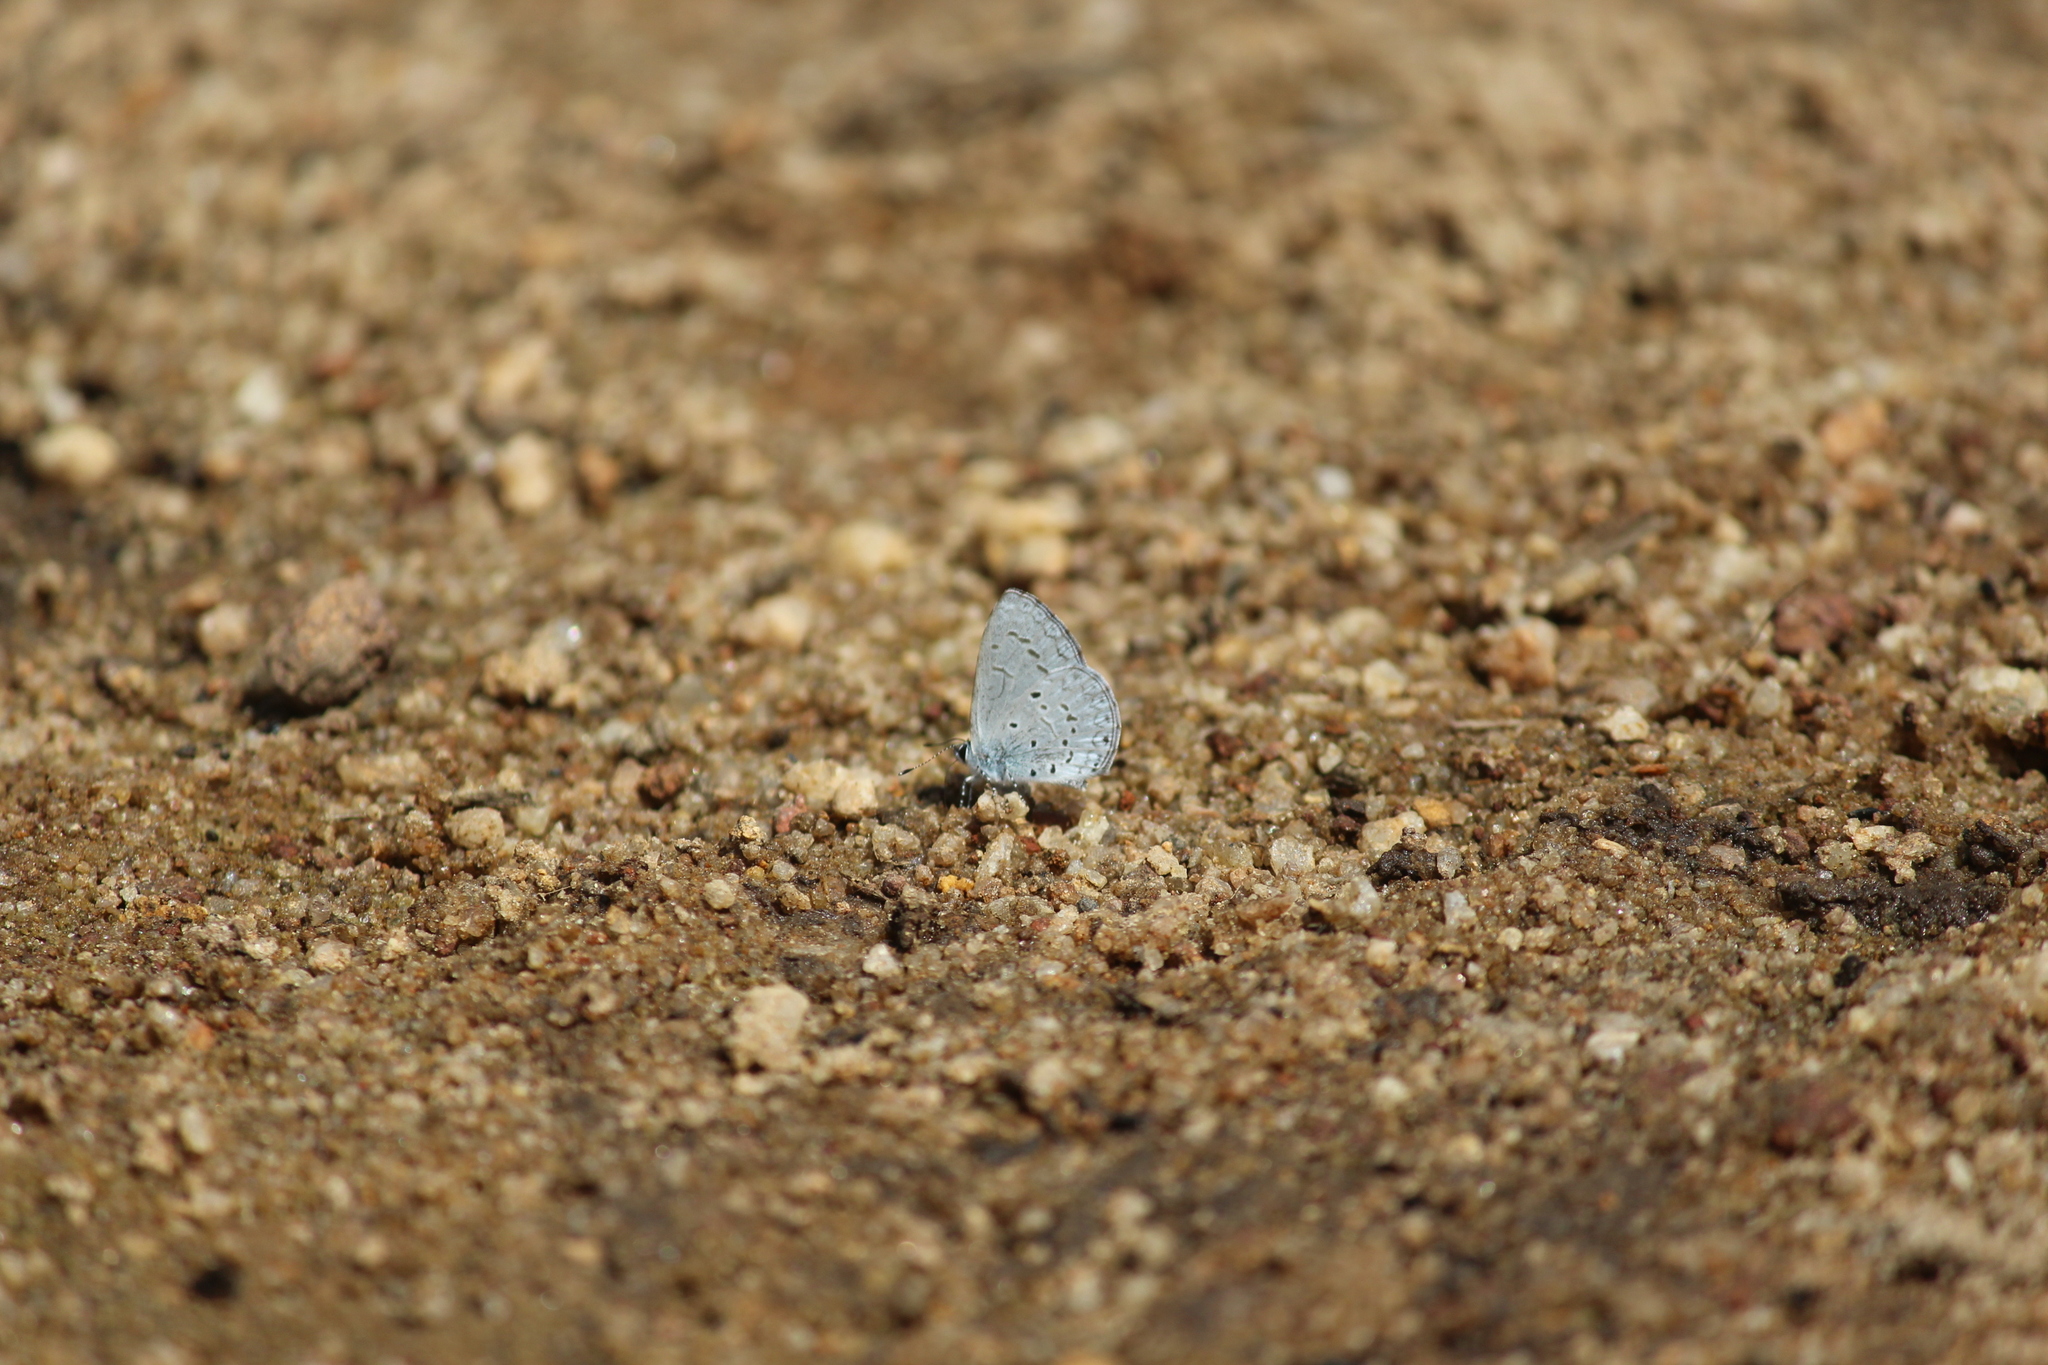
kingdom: Animalia
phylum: Arthropoda
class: Insecta
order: Lepidoptera
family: Lycaenidae
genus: Celastrina
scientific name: Celastrina lavendularis
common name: Plain hedge blue
